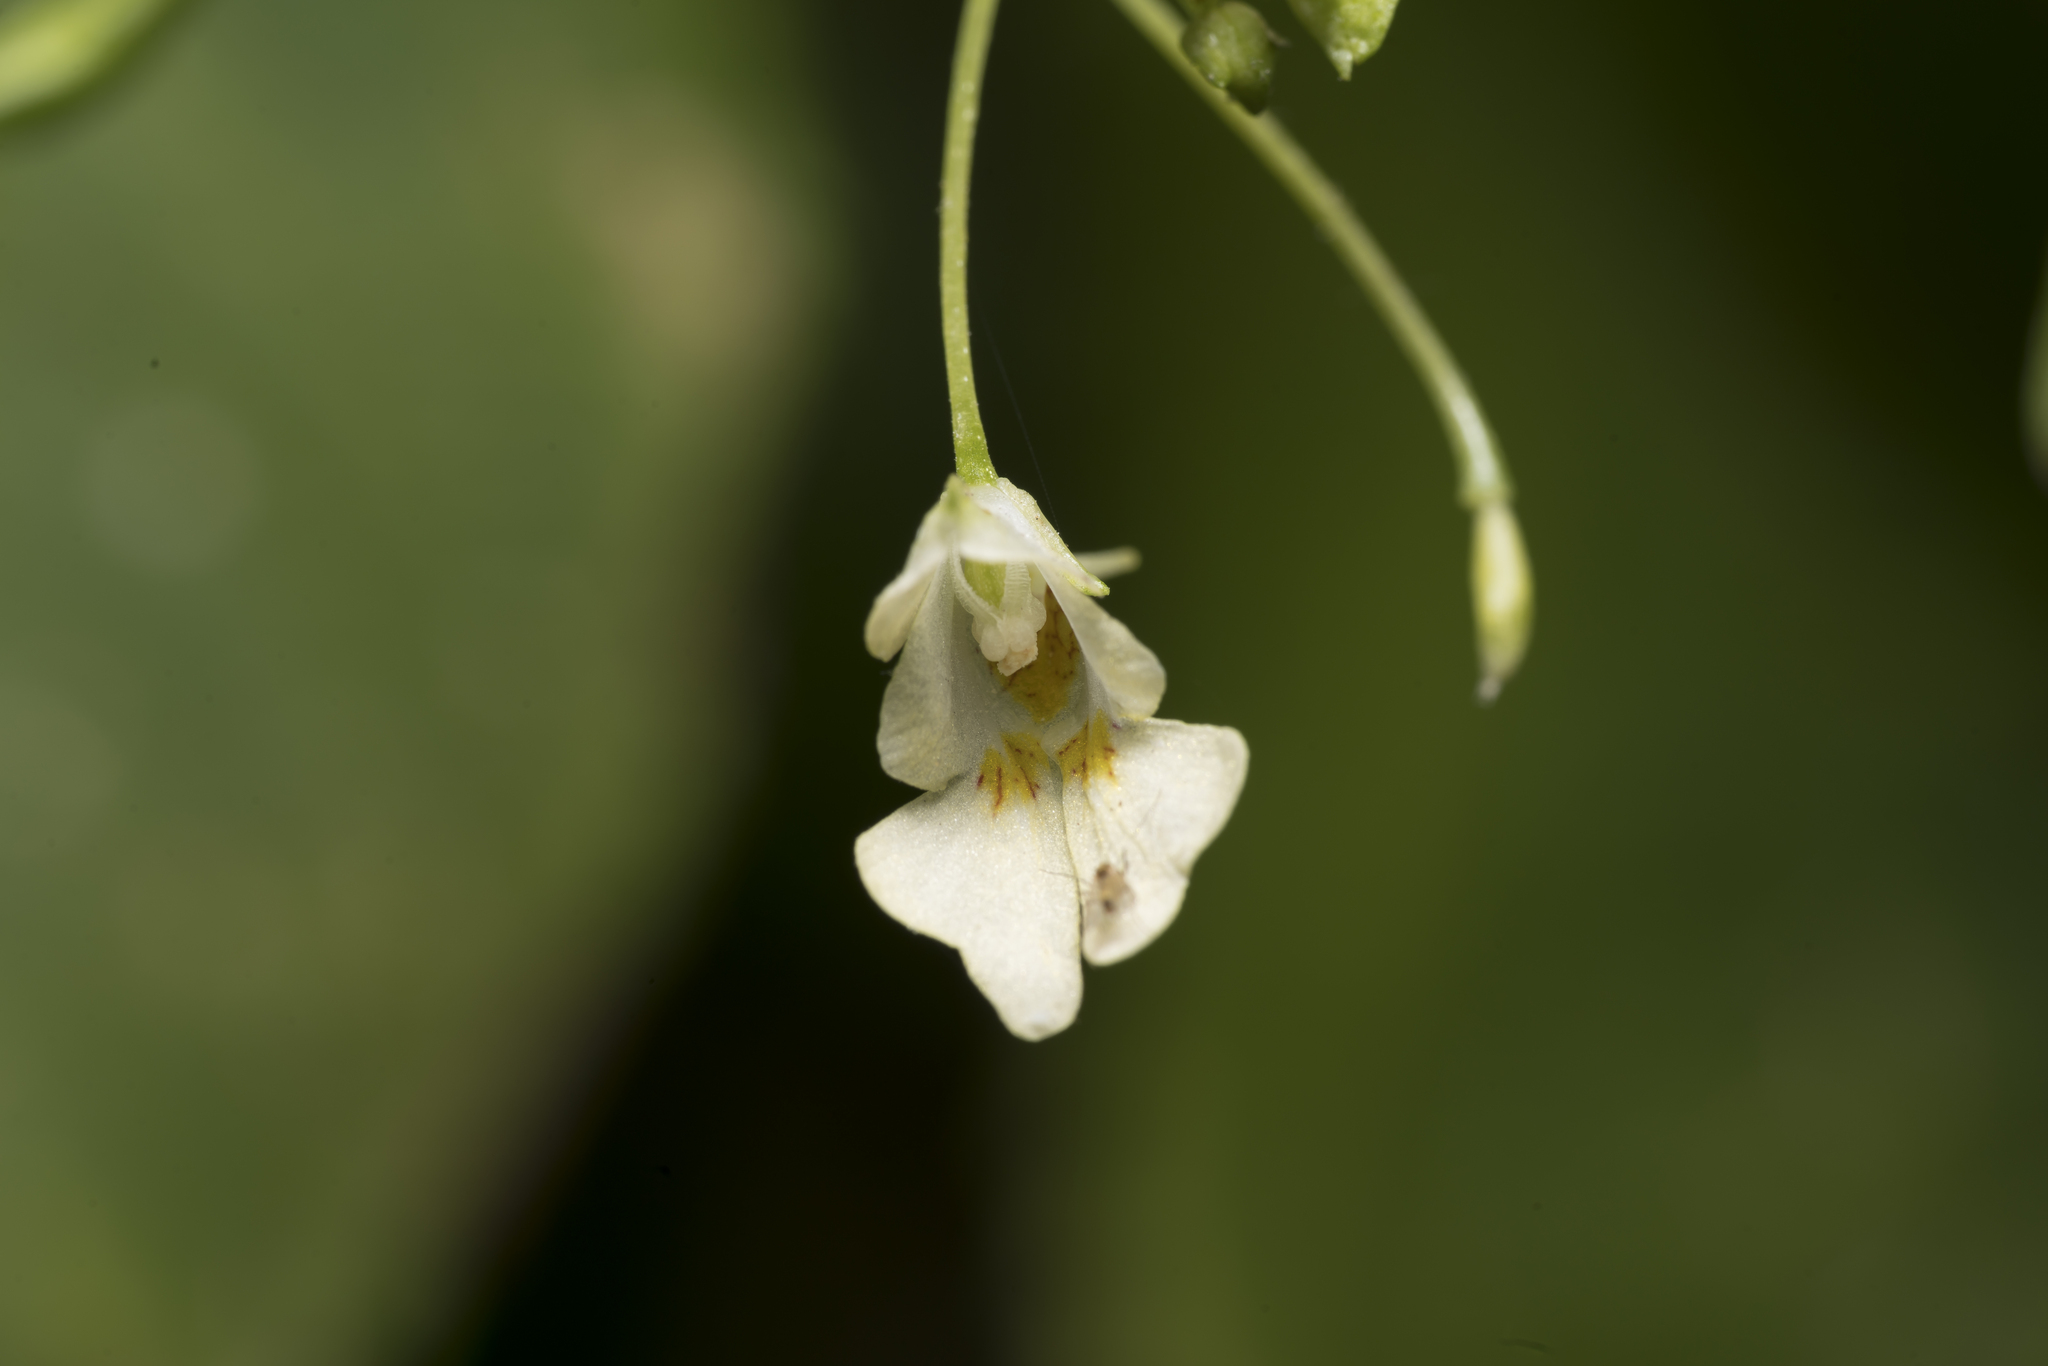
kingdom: Plantae
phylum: Tracheophyta
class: Magnoliopsida
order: Ericales
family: Balsaminaceae
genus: Impatiens
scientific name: Impatiens parviflora
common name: Small balsam
